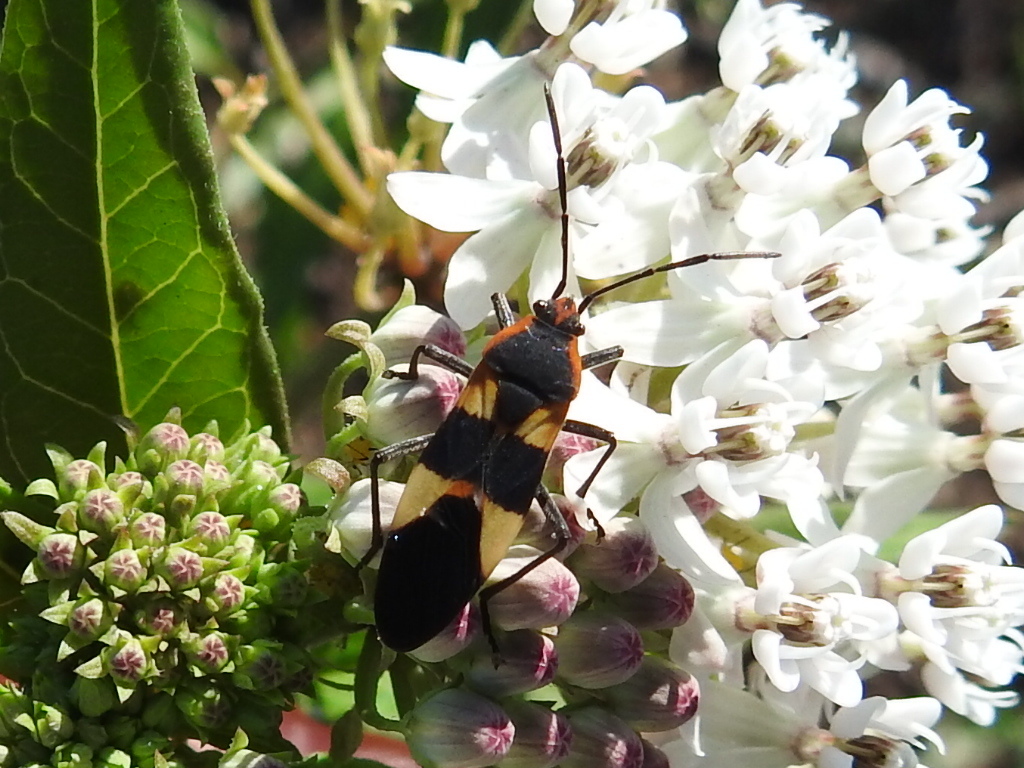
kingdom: Animalia
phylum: Arthropoda
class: Insecta
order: Hemiptera
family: Lygaeidae
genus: Oncopeltus
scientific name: Oncopeltus fasciatus
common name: Large milkweed bug
